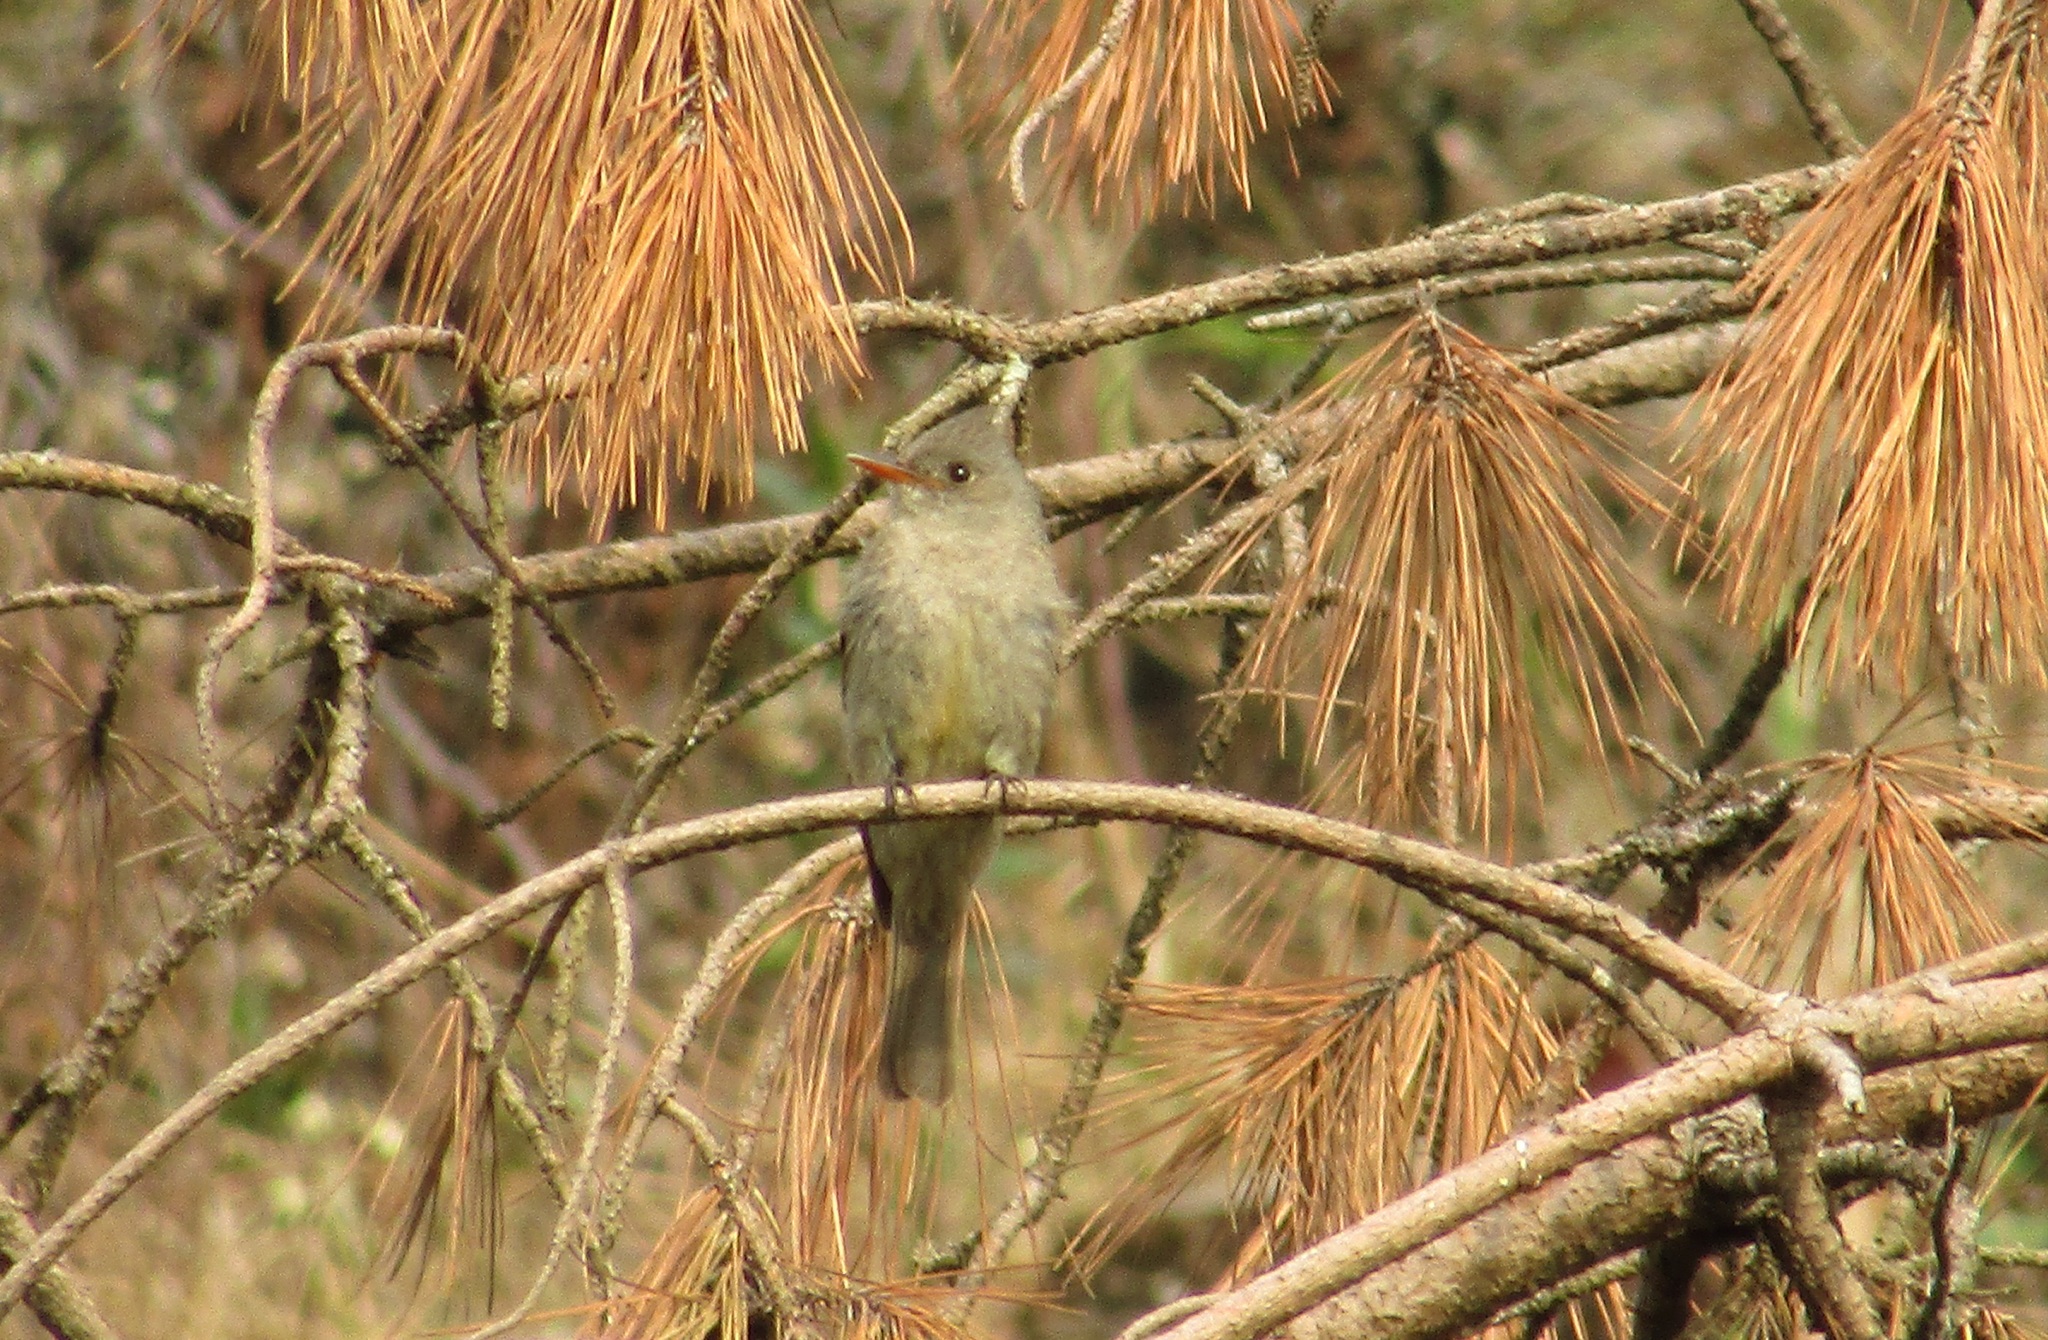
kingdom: Animalia
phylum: Chordata
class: Aves
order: Passeriformes
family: Tyrannidae
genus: Contopus
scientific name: Contopus pertinax
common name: Greater pewee
